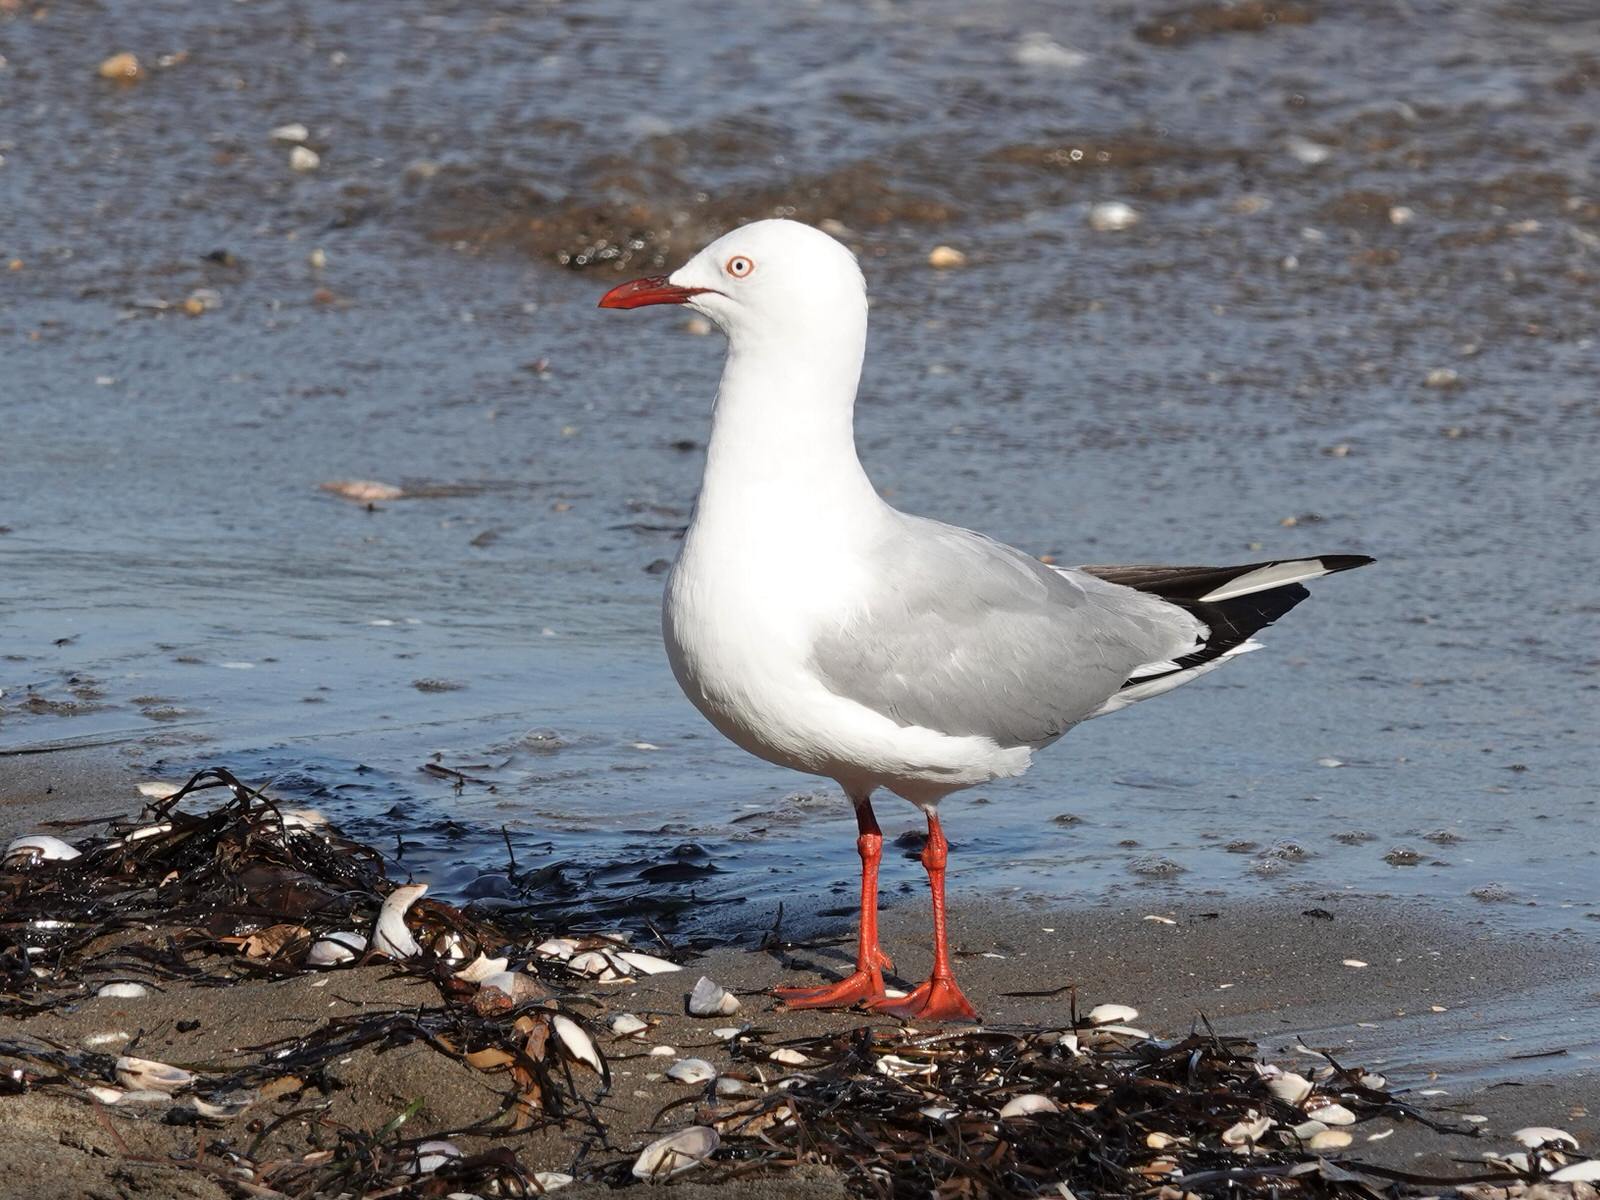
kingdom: Animalia
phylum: Chordata
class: Aves
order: Charadriiformes
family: Laridae
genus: Chroicocephalus
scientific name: Chroicocephalus novaehollandiae
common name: Silver gull
